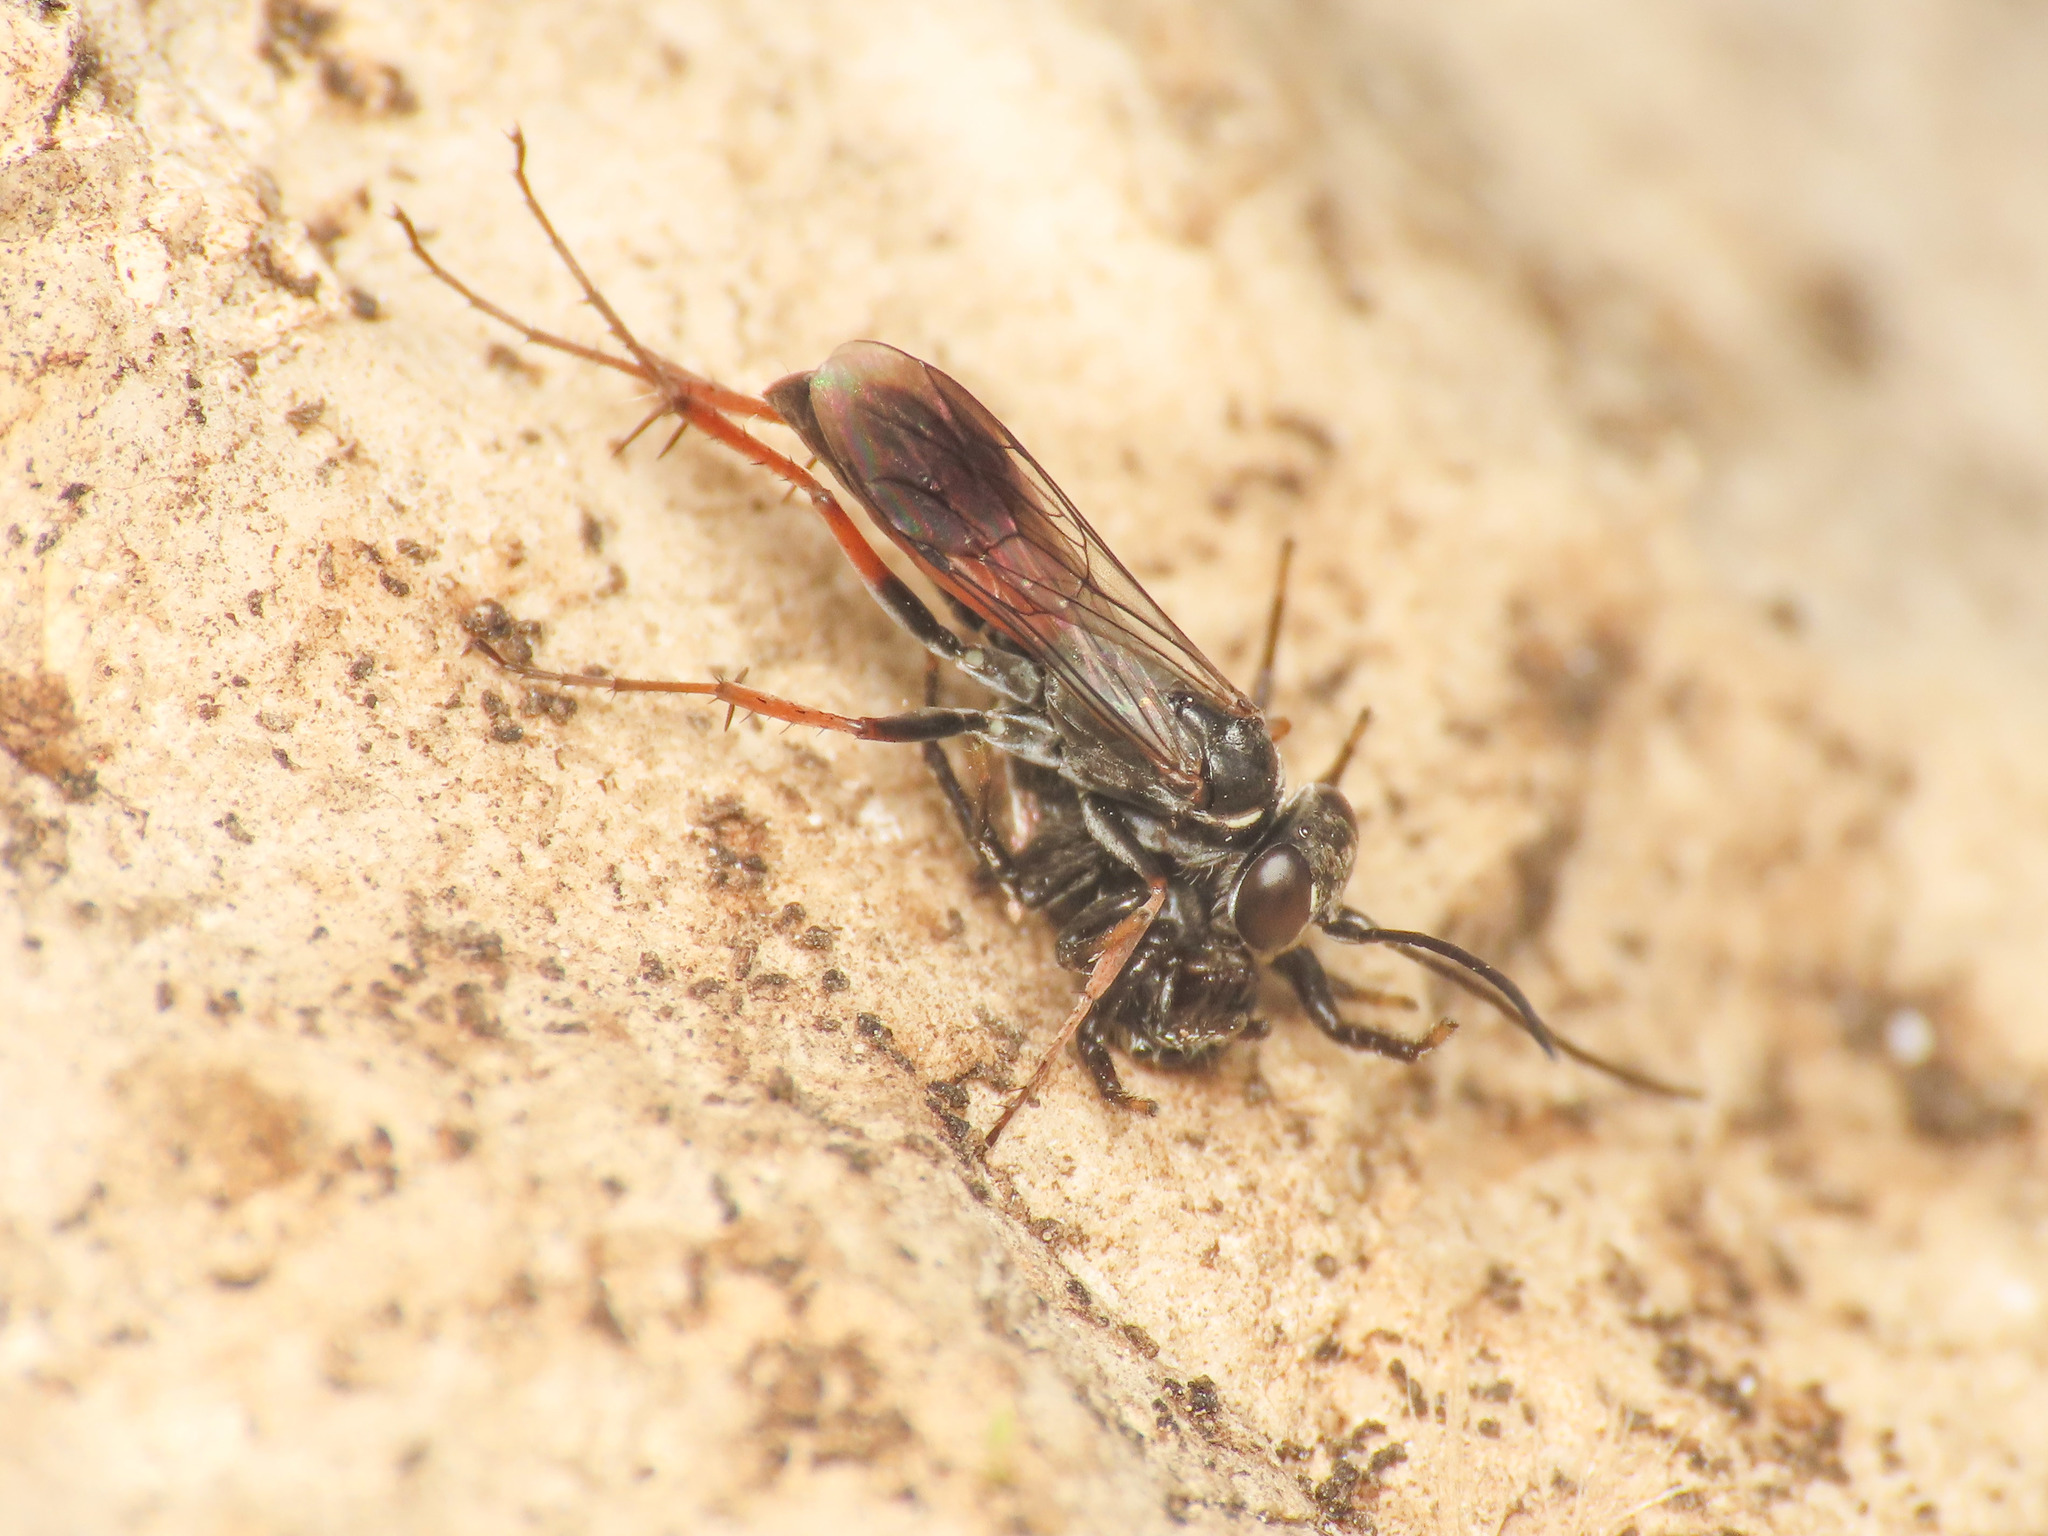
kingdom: Animalia
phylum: Arthropoda
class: Insecta
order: Hymenoptera
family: Pompilidae
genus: Agenioideus
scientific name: Agenioideus nubecula
